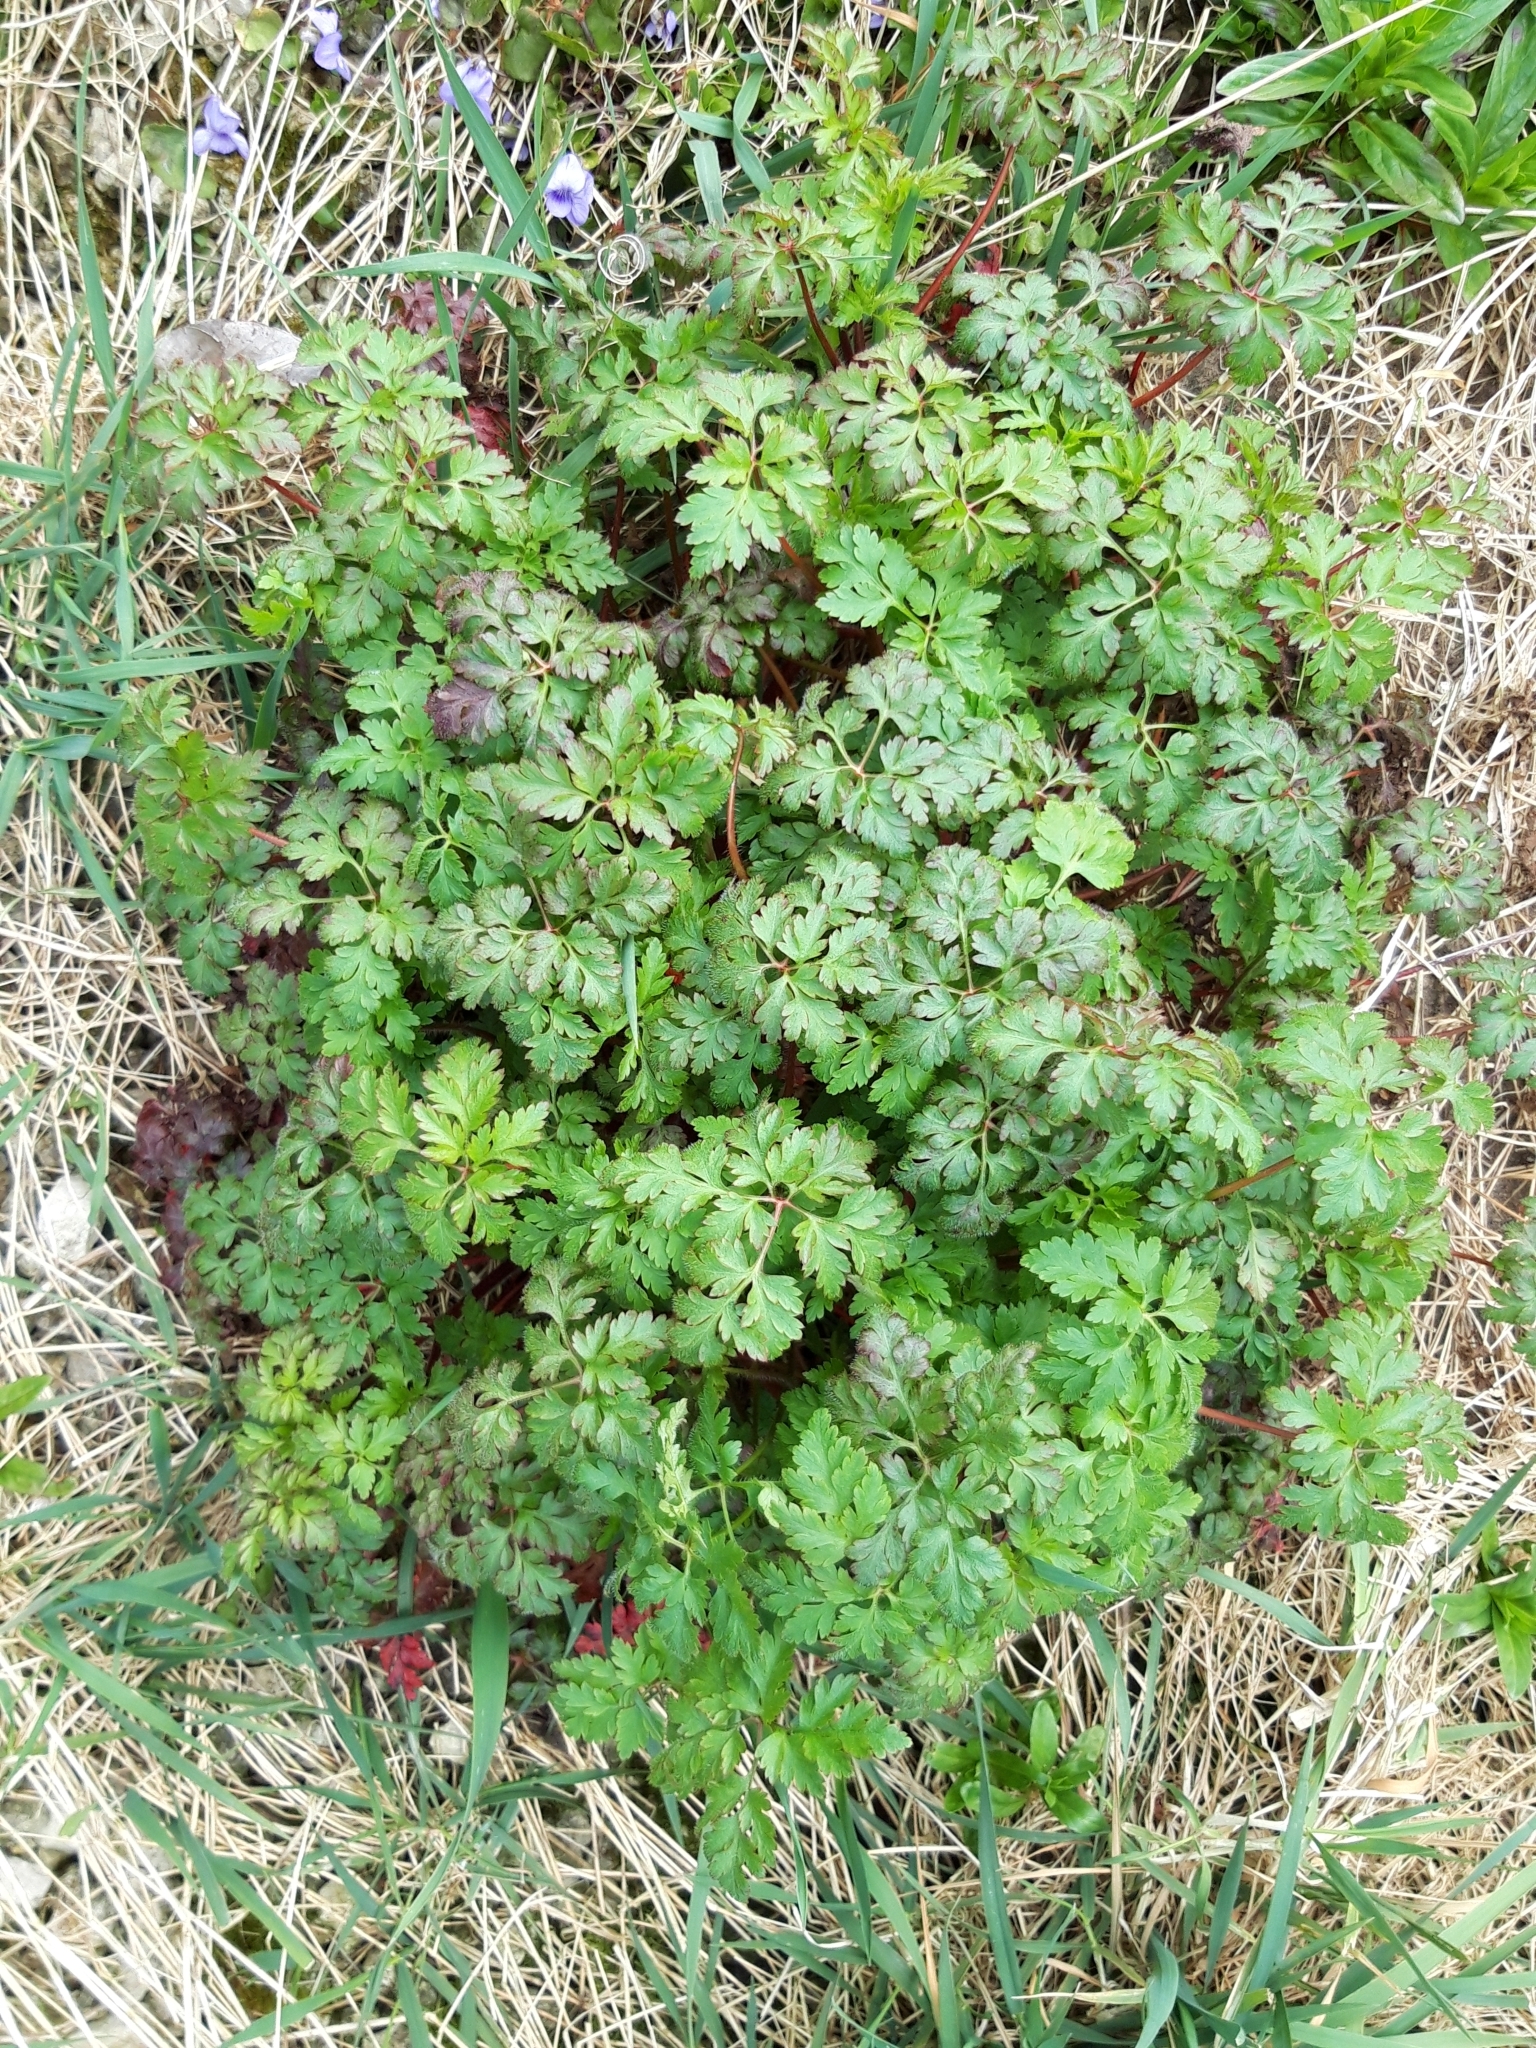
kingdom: Plantae
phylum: Tracheophyta
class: Magnoliopsida
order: Geraniales
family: Geraniaceae
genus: Geranium
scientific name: Geranium robertianum
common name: Herb-robert
